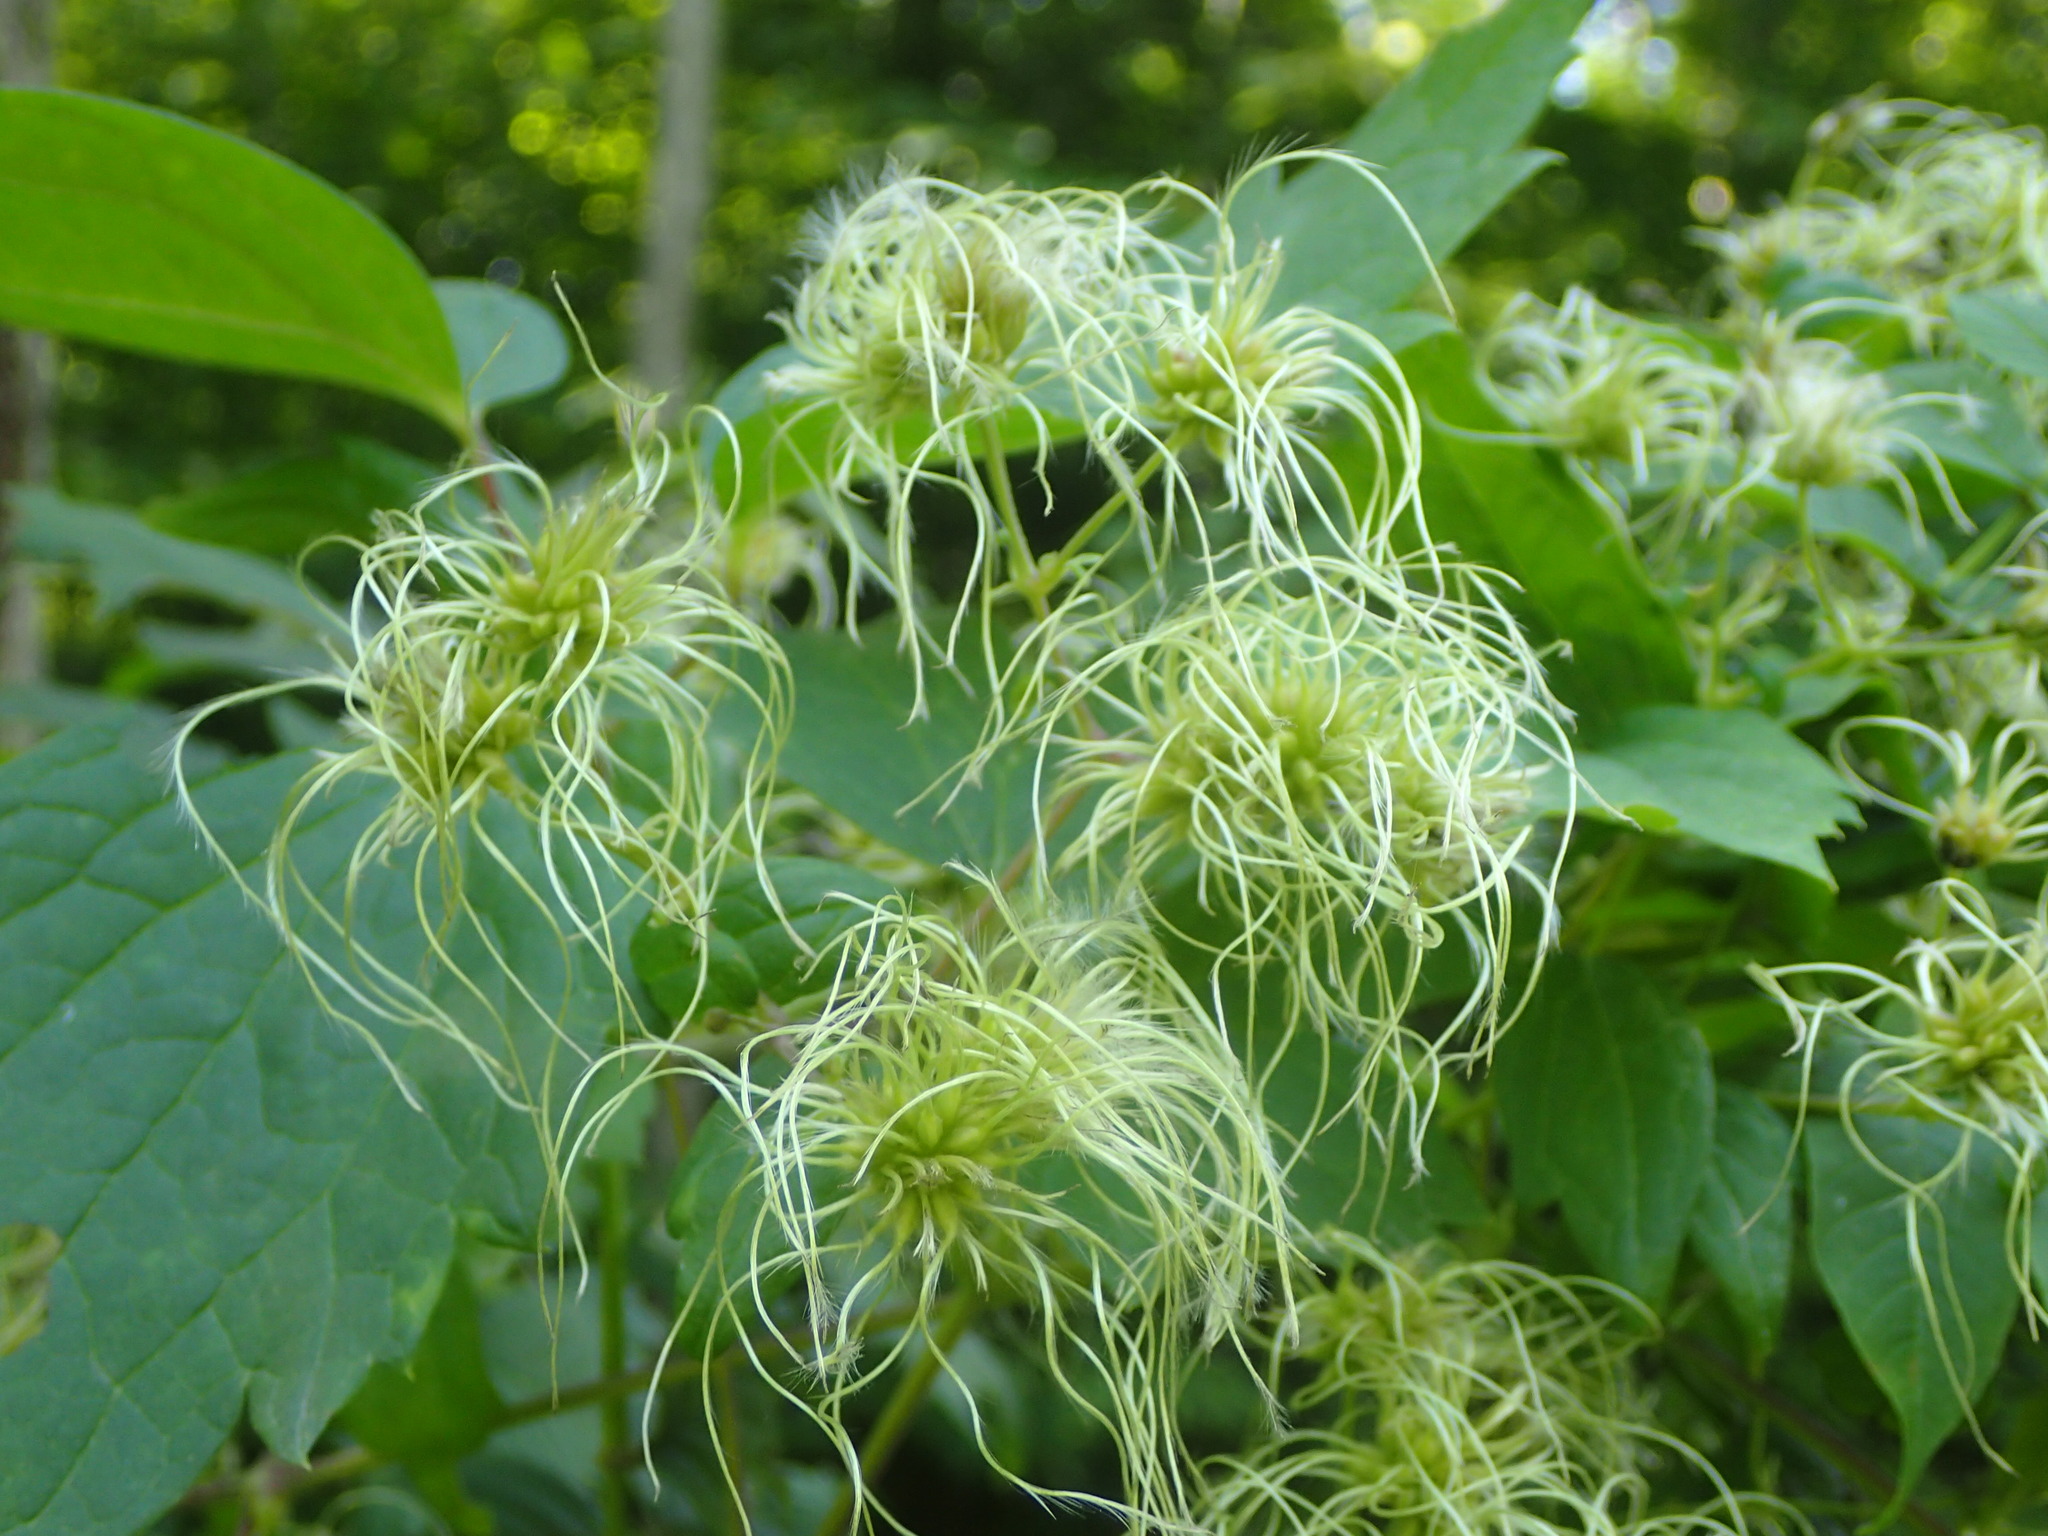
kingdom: Plantae
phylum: Tracheophyta
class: Magnoliopsida
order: Ranunculales
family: Ranunculaceae
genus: Clematis
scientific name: Clematis virginiana
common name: Virgin's-bower
